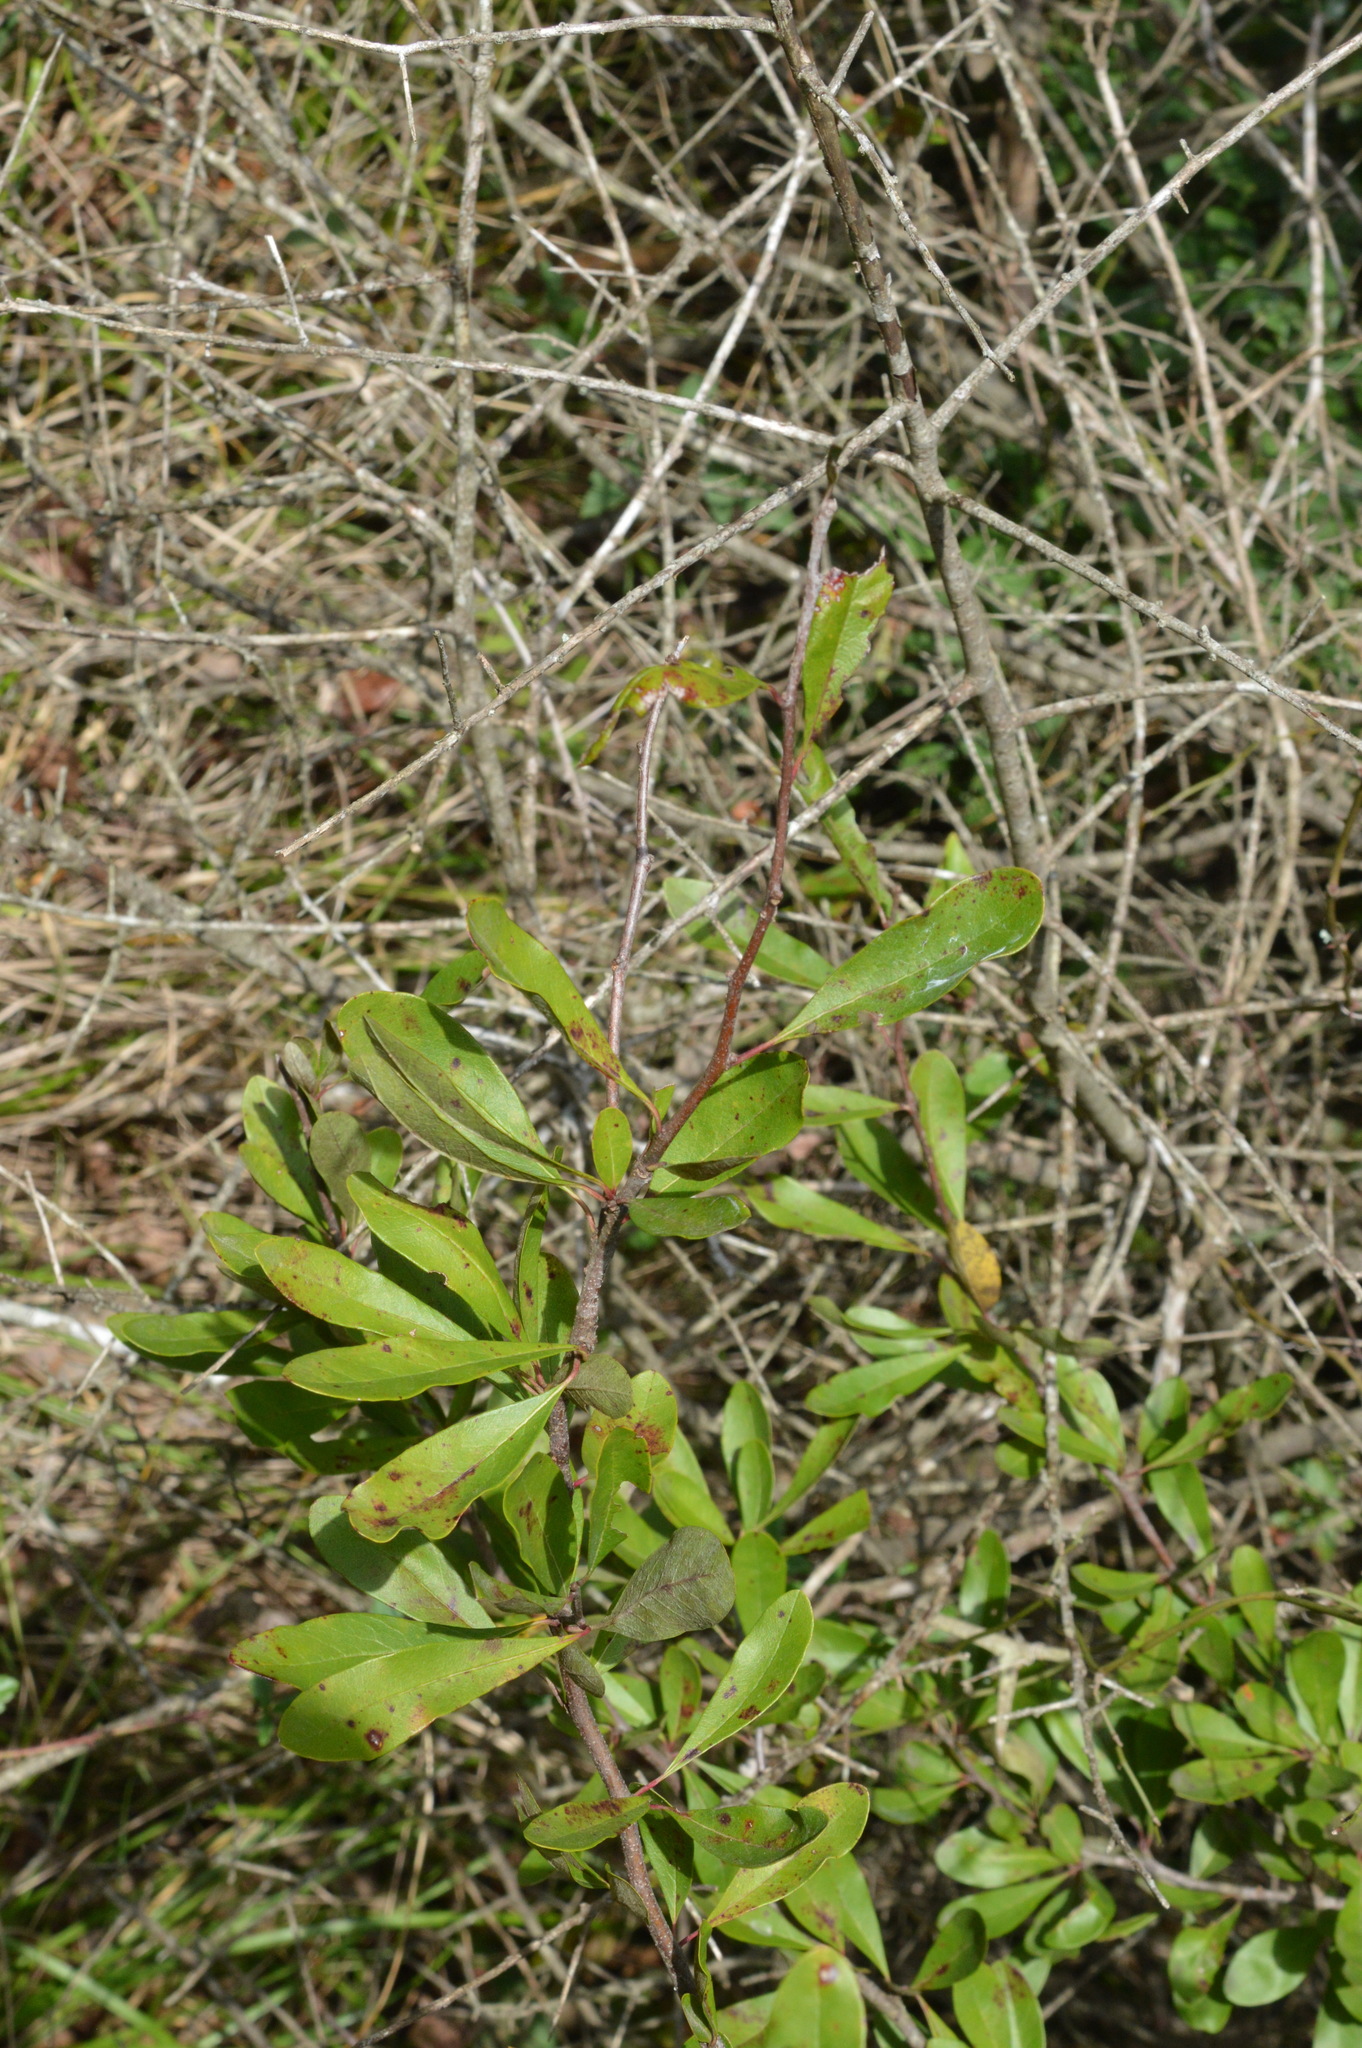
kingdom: Plantae
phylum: Tracheophyta
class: Magnoliopsida
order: Ericales
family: Sapotaceae
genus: Sideroxylon
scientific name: Sideroxylon lanuginosum
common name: Chittamwood
